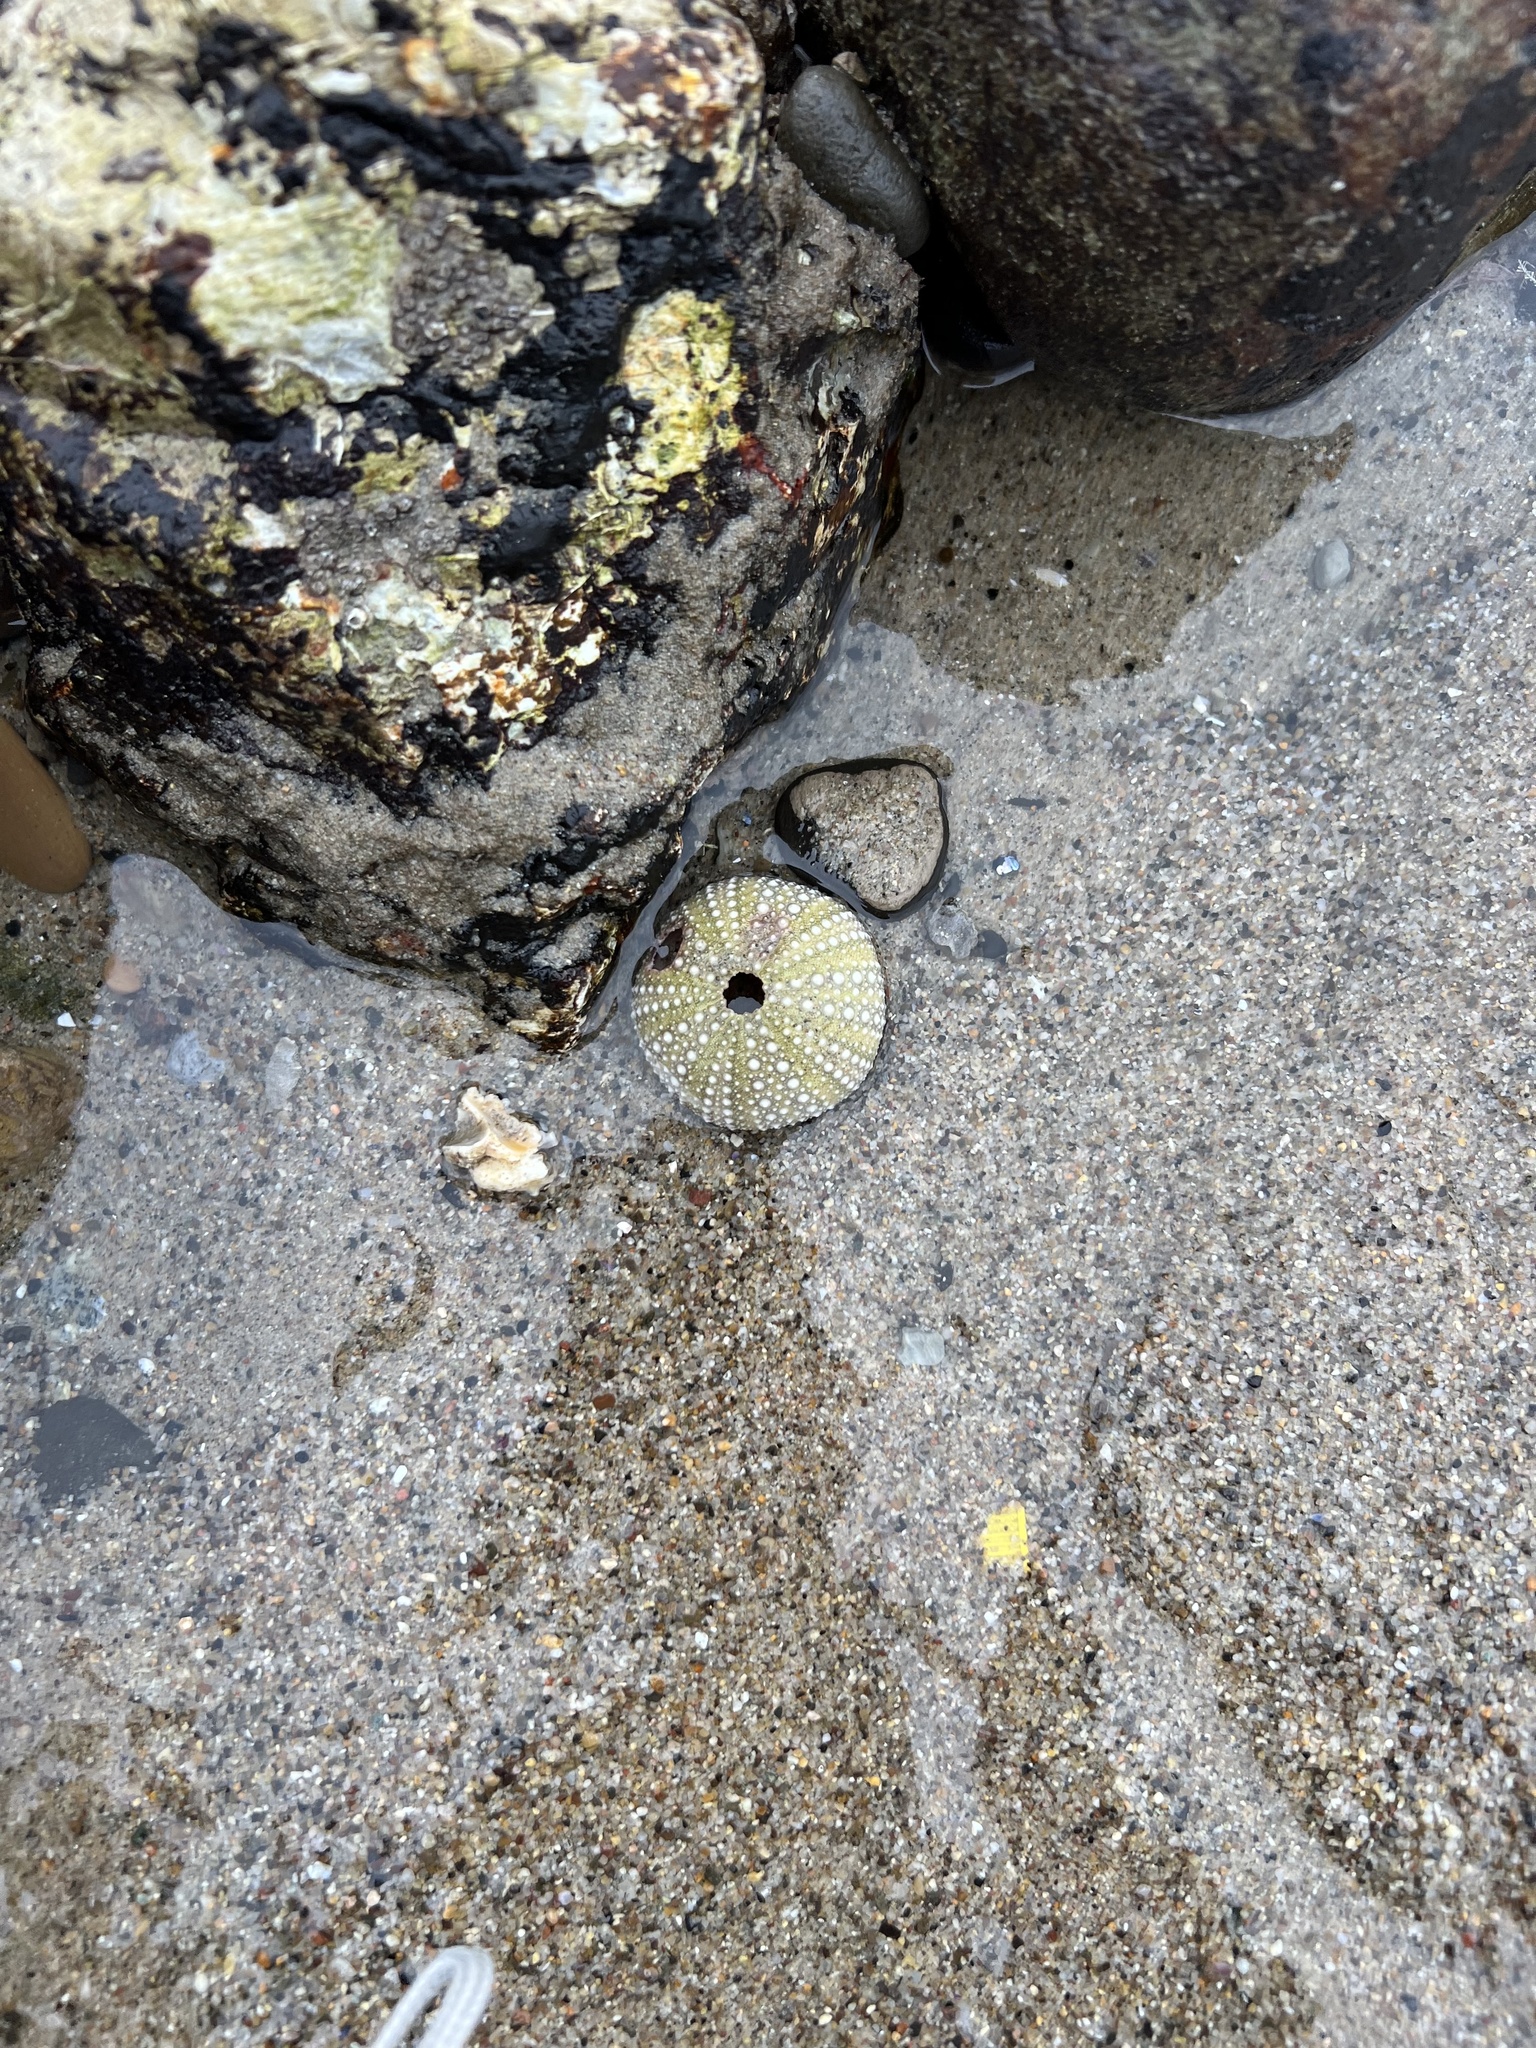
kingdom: Animalia
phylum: Echinodermata
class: Echinoidea
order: Camarodonta
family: Strongylocentrotidae
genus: Strongylocentrotus
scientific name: Strongylocentrotus purpuratus
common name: Purple sea urchin
